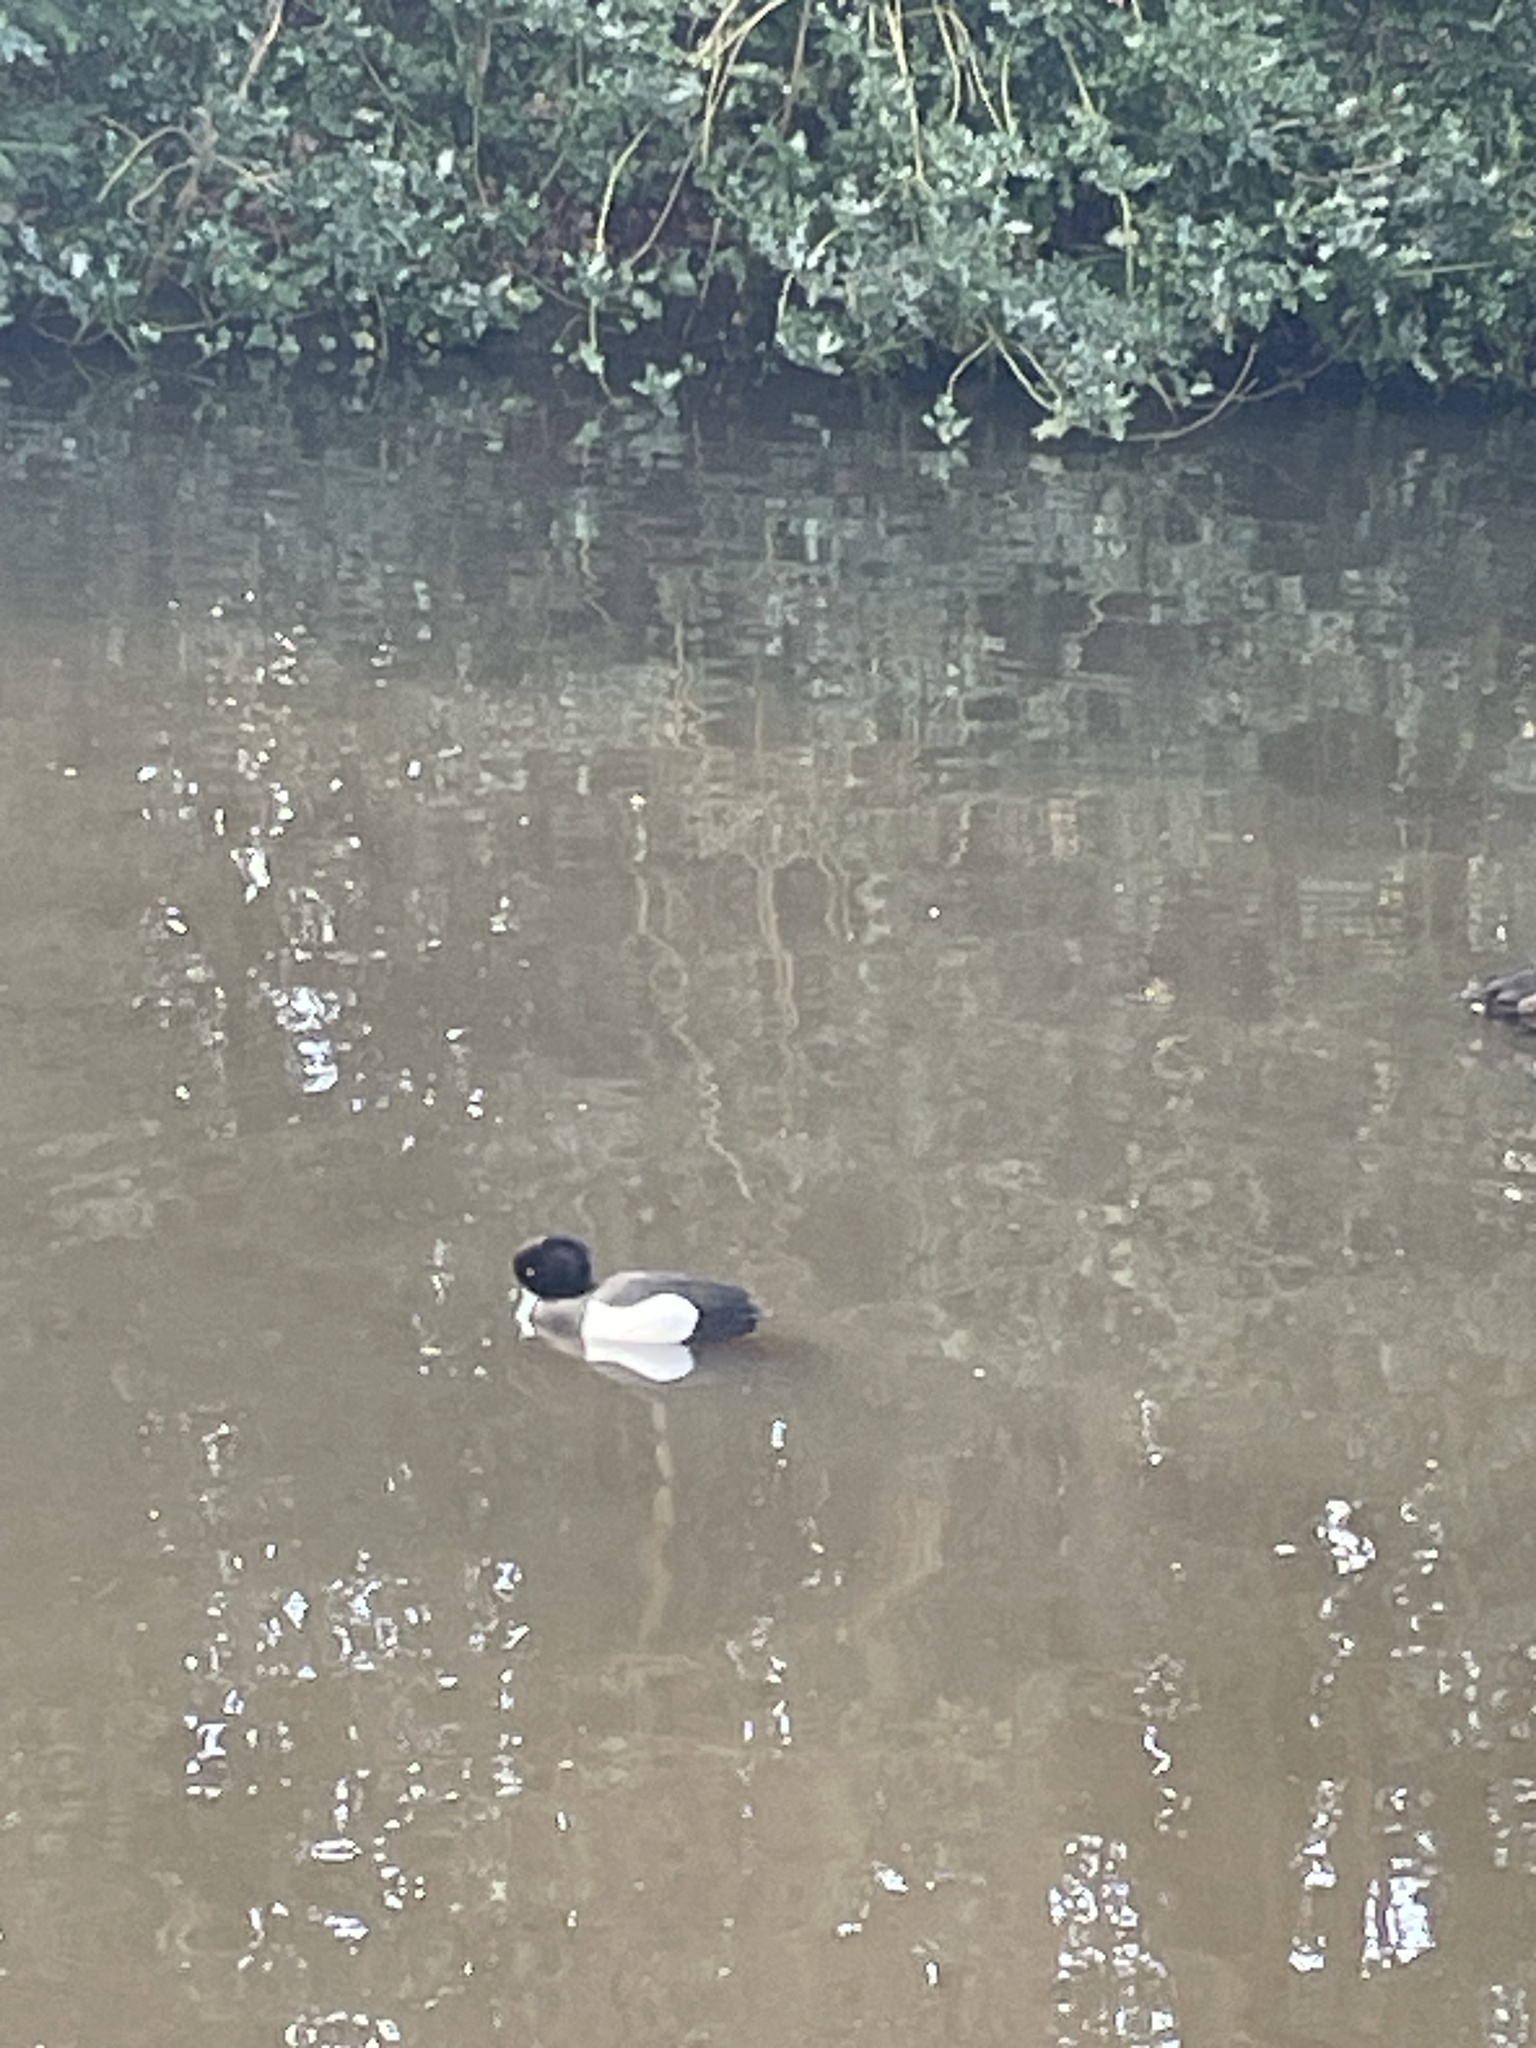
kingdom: Animalia
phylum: Chordata
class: Aves
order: Anseriformes
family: Anatidae
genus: Aythya
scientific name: Aythya fuligula
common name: Tufted duck
